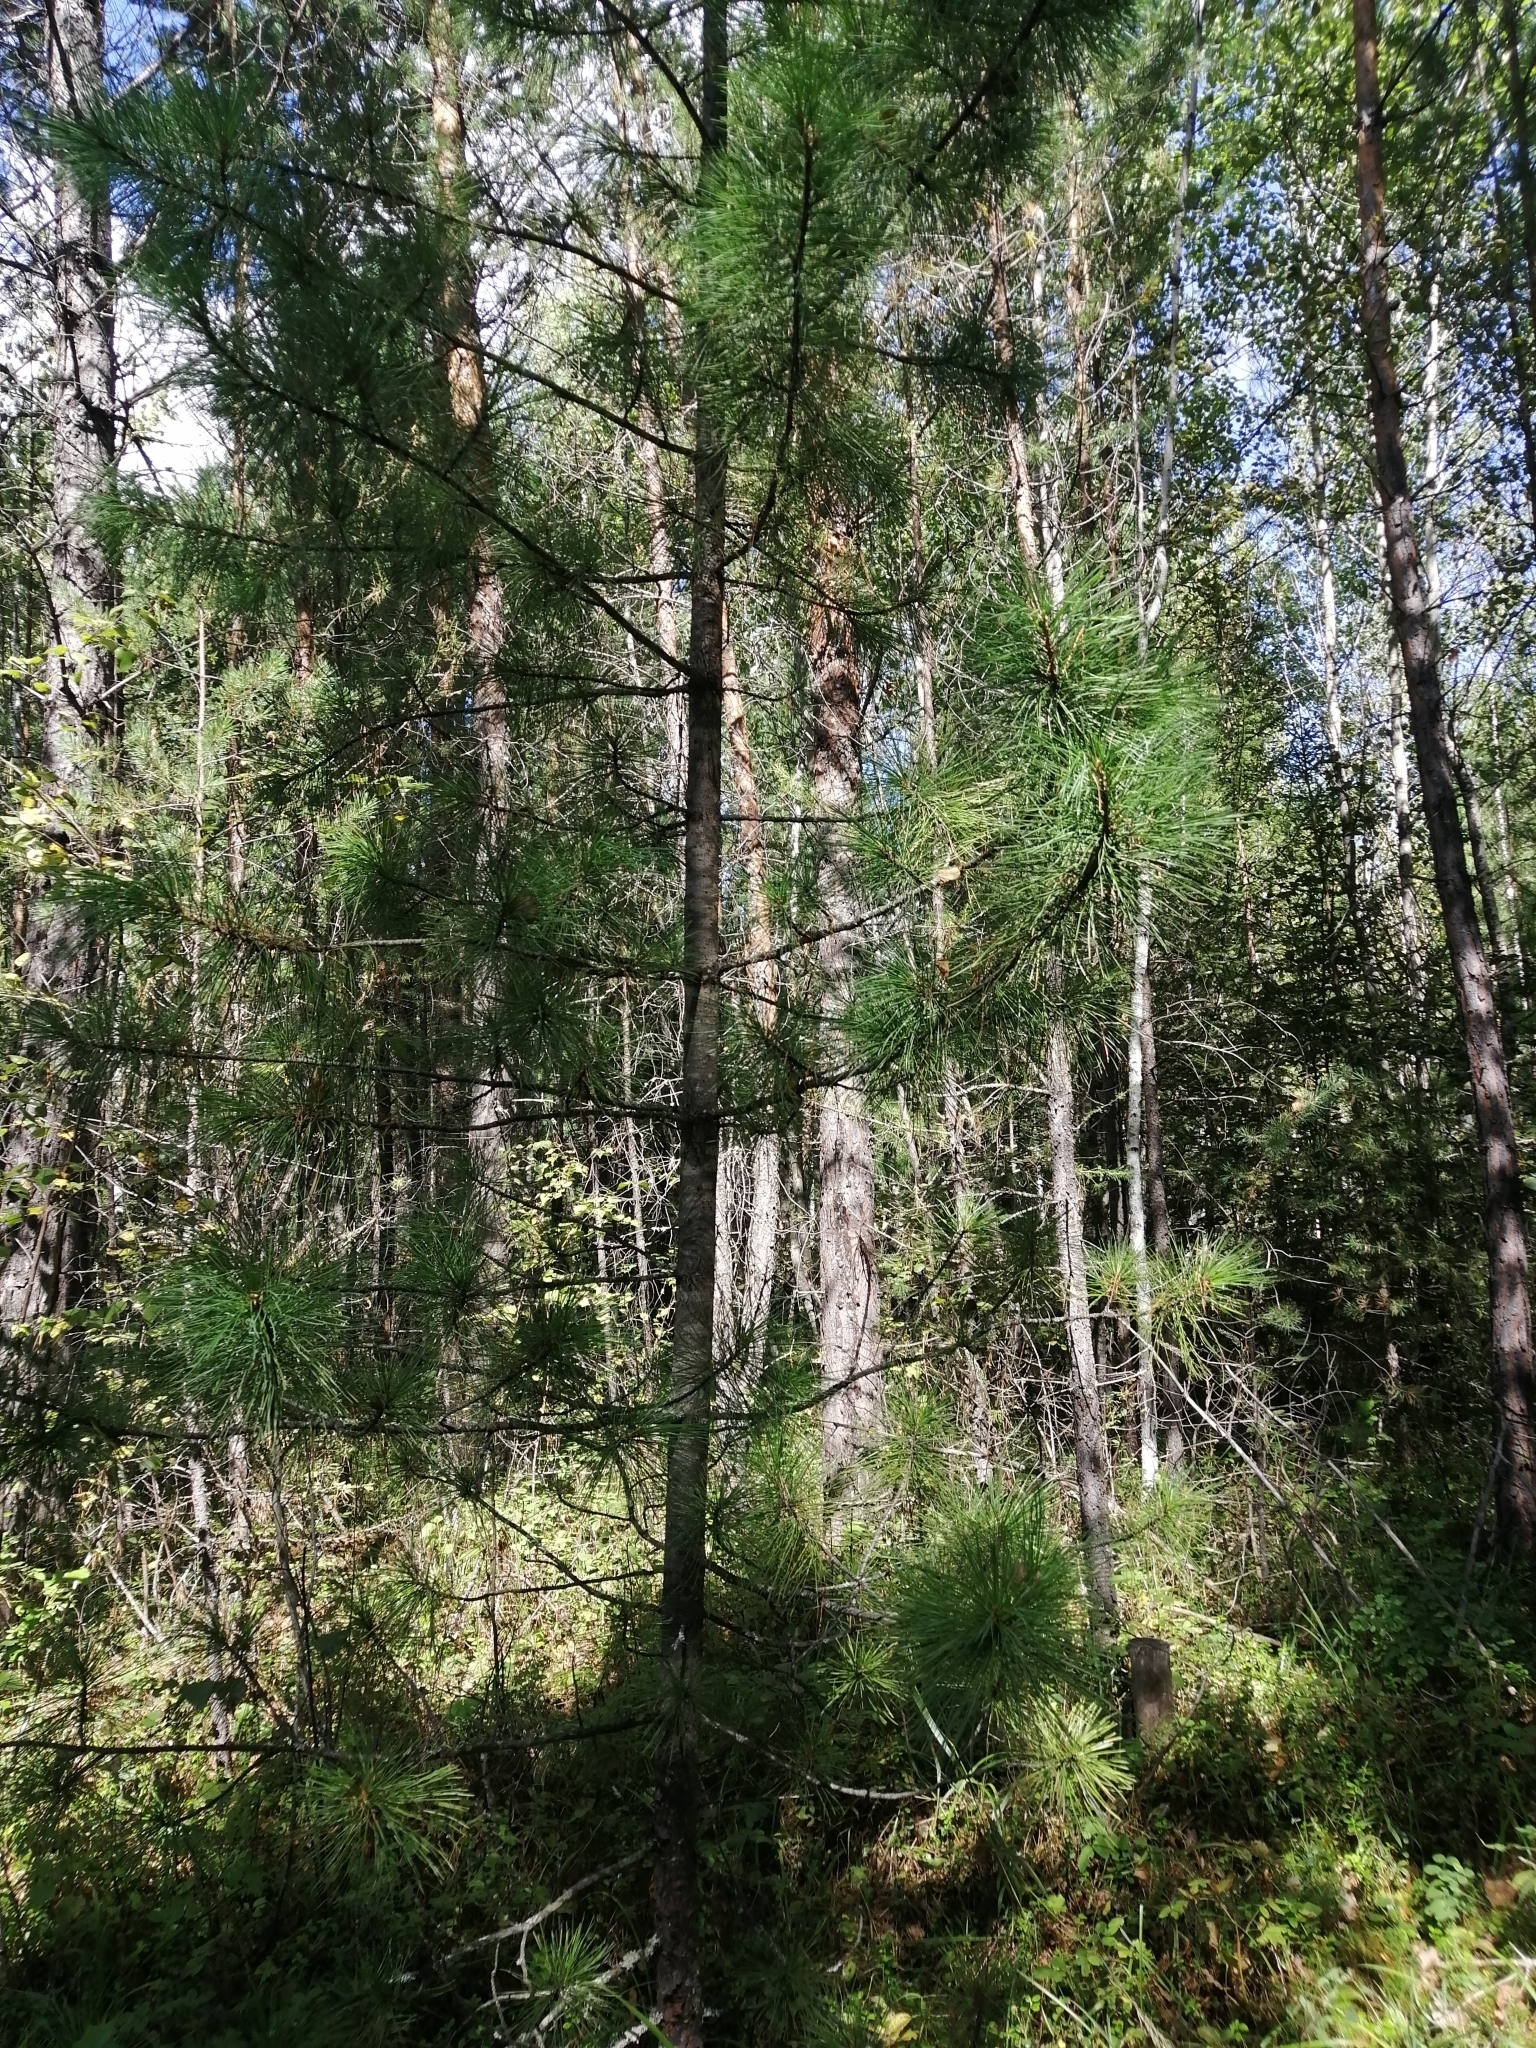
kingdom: Plantae
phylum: Tracheophyta
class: Pinopsida
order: Pinales
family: Pinaceae
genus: Pinus
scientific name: Pinus sibirica
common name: Siberian pine
